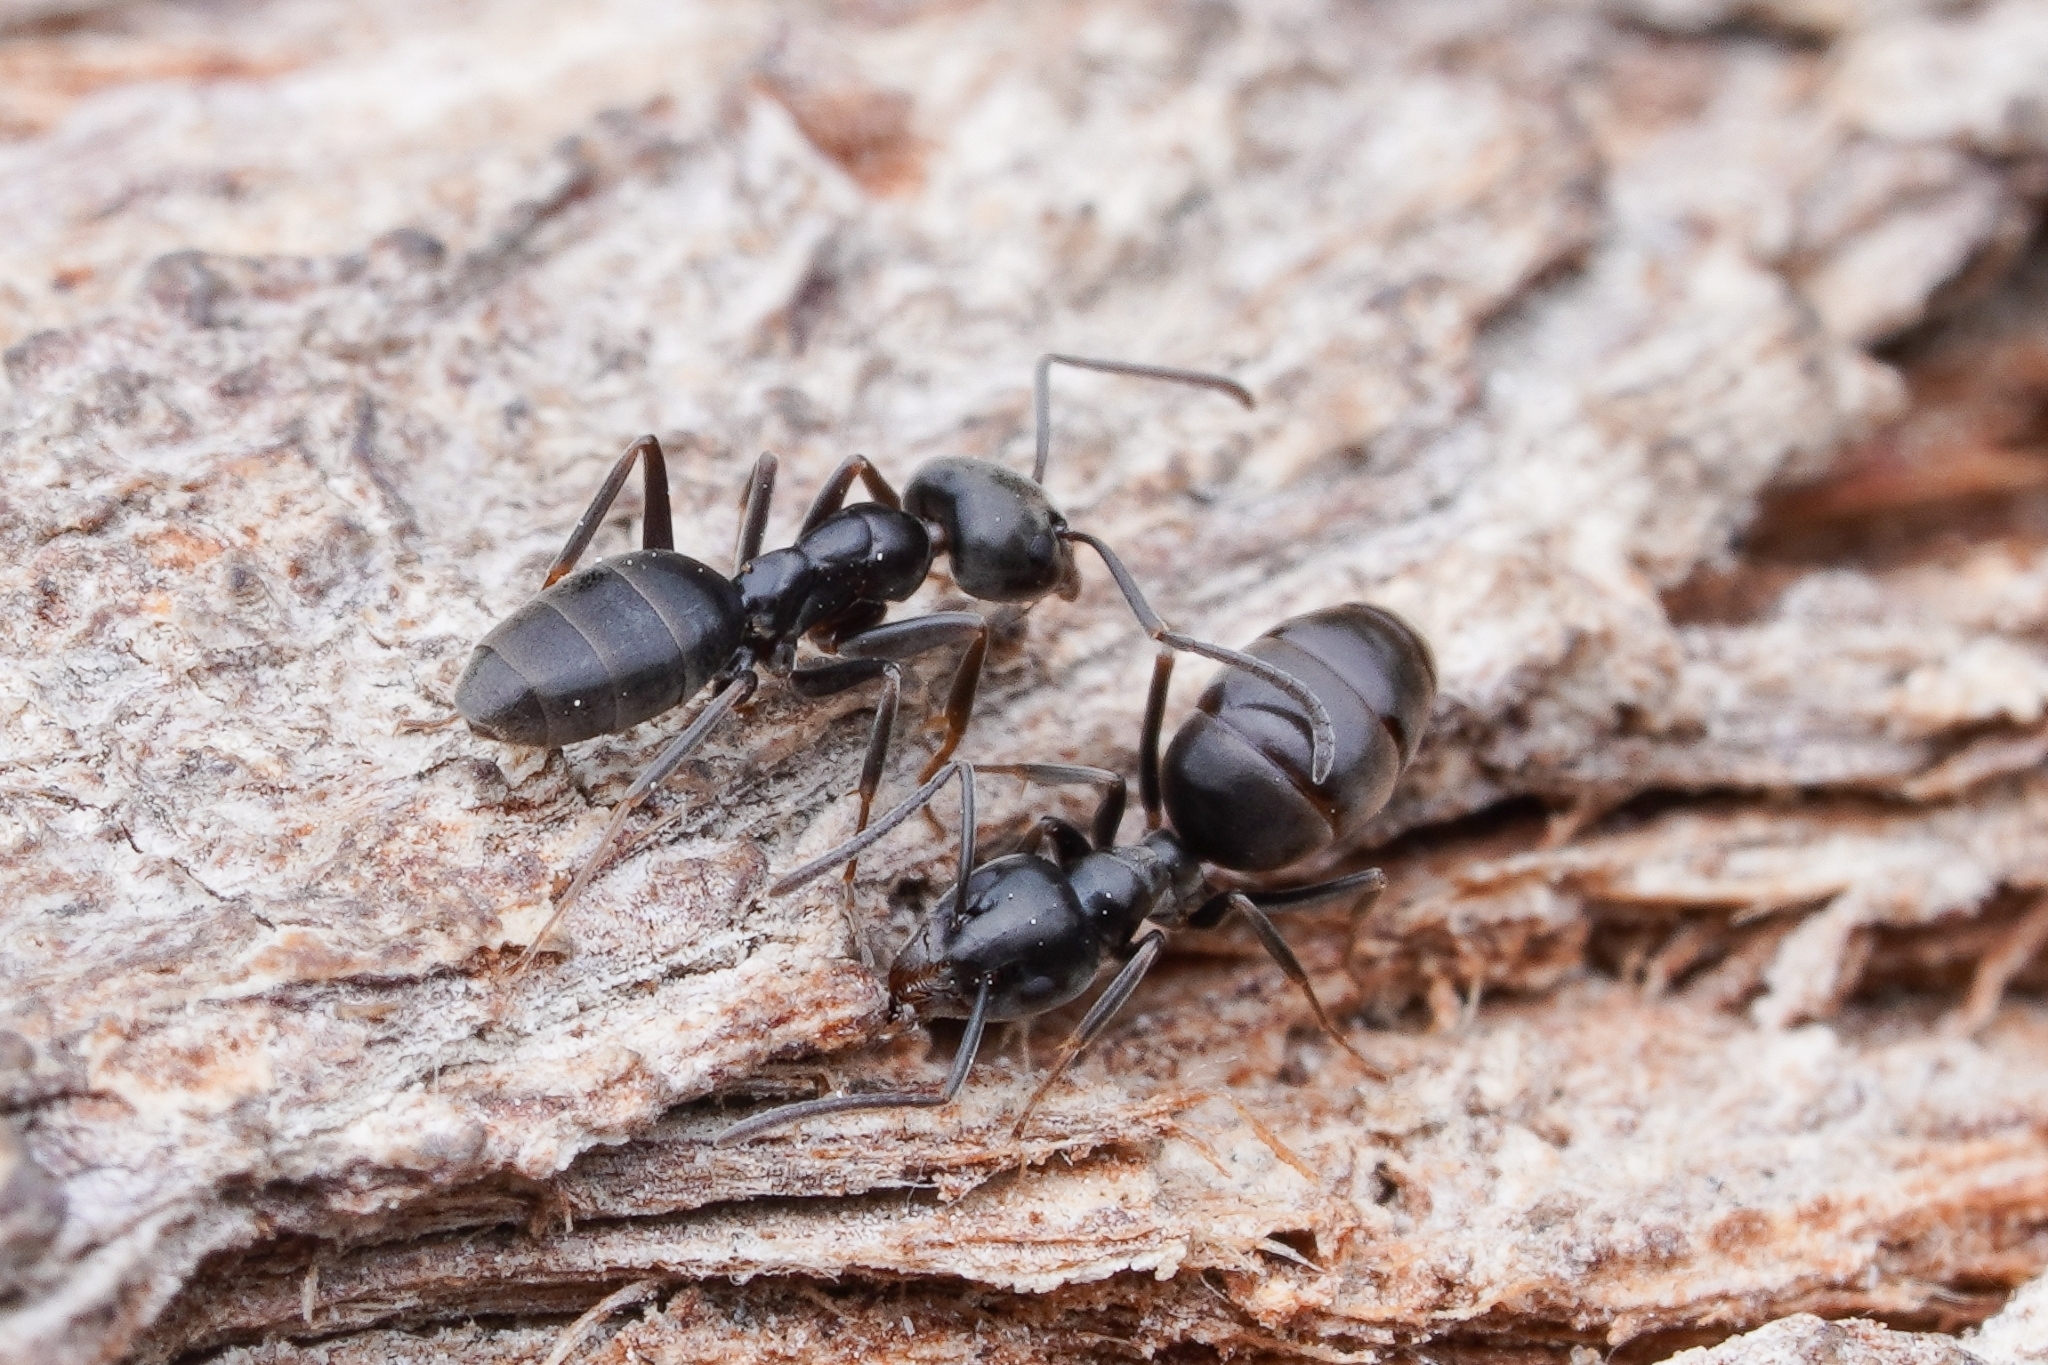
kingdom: Animalia
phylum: Arthropoda
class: Insecta
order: Hymenoptera
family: Formicidae
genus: Tapinoma
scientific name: Tapinoma simrothi
